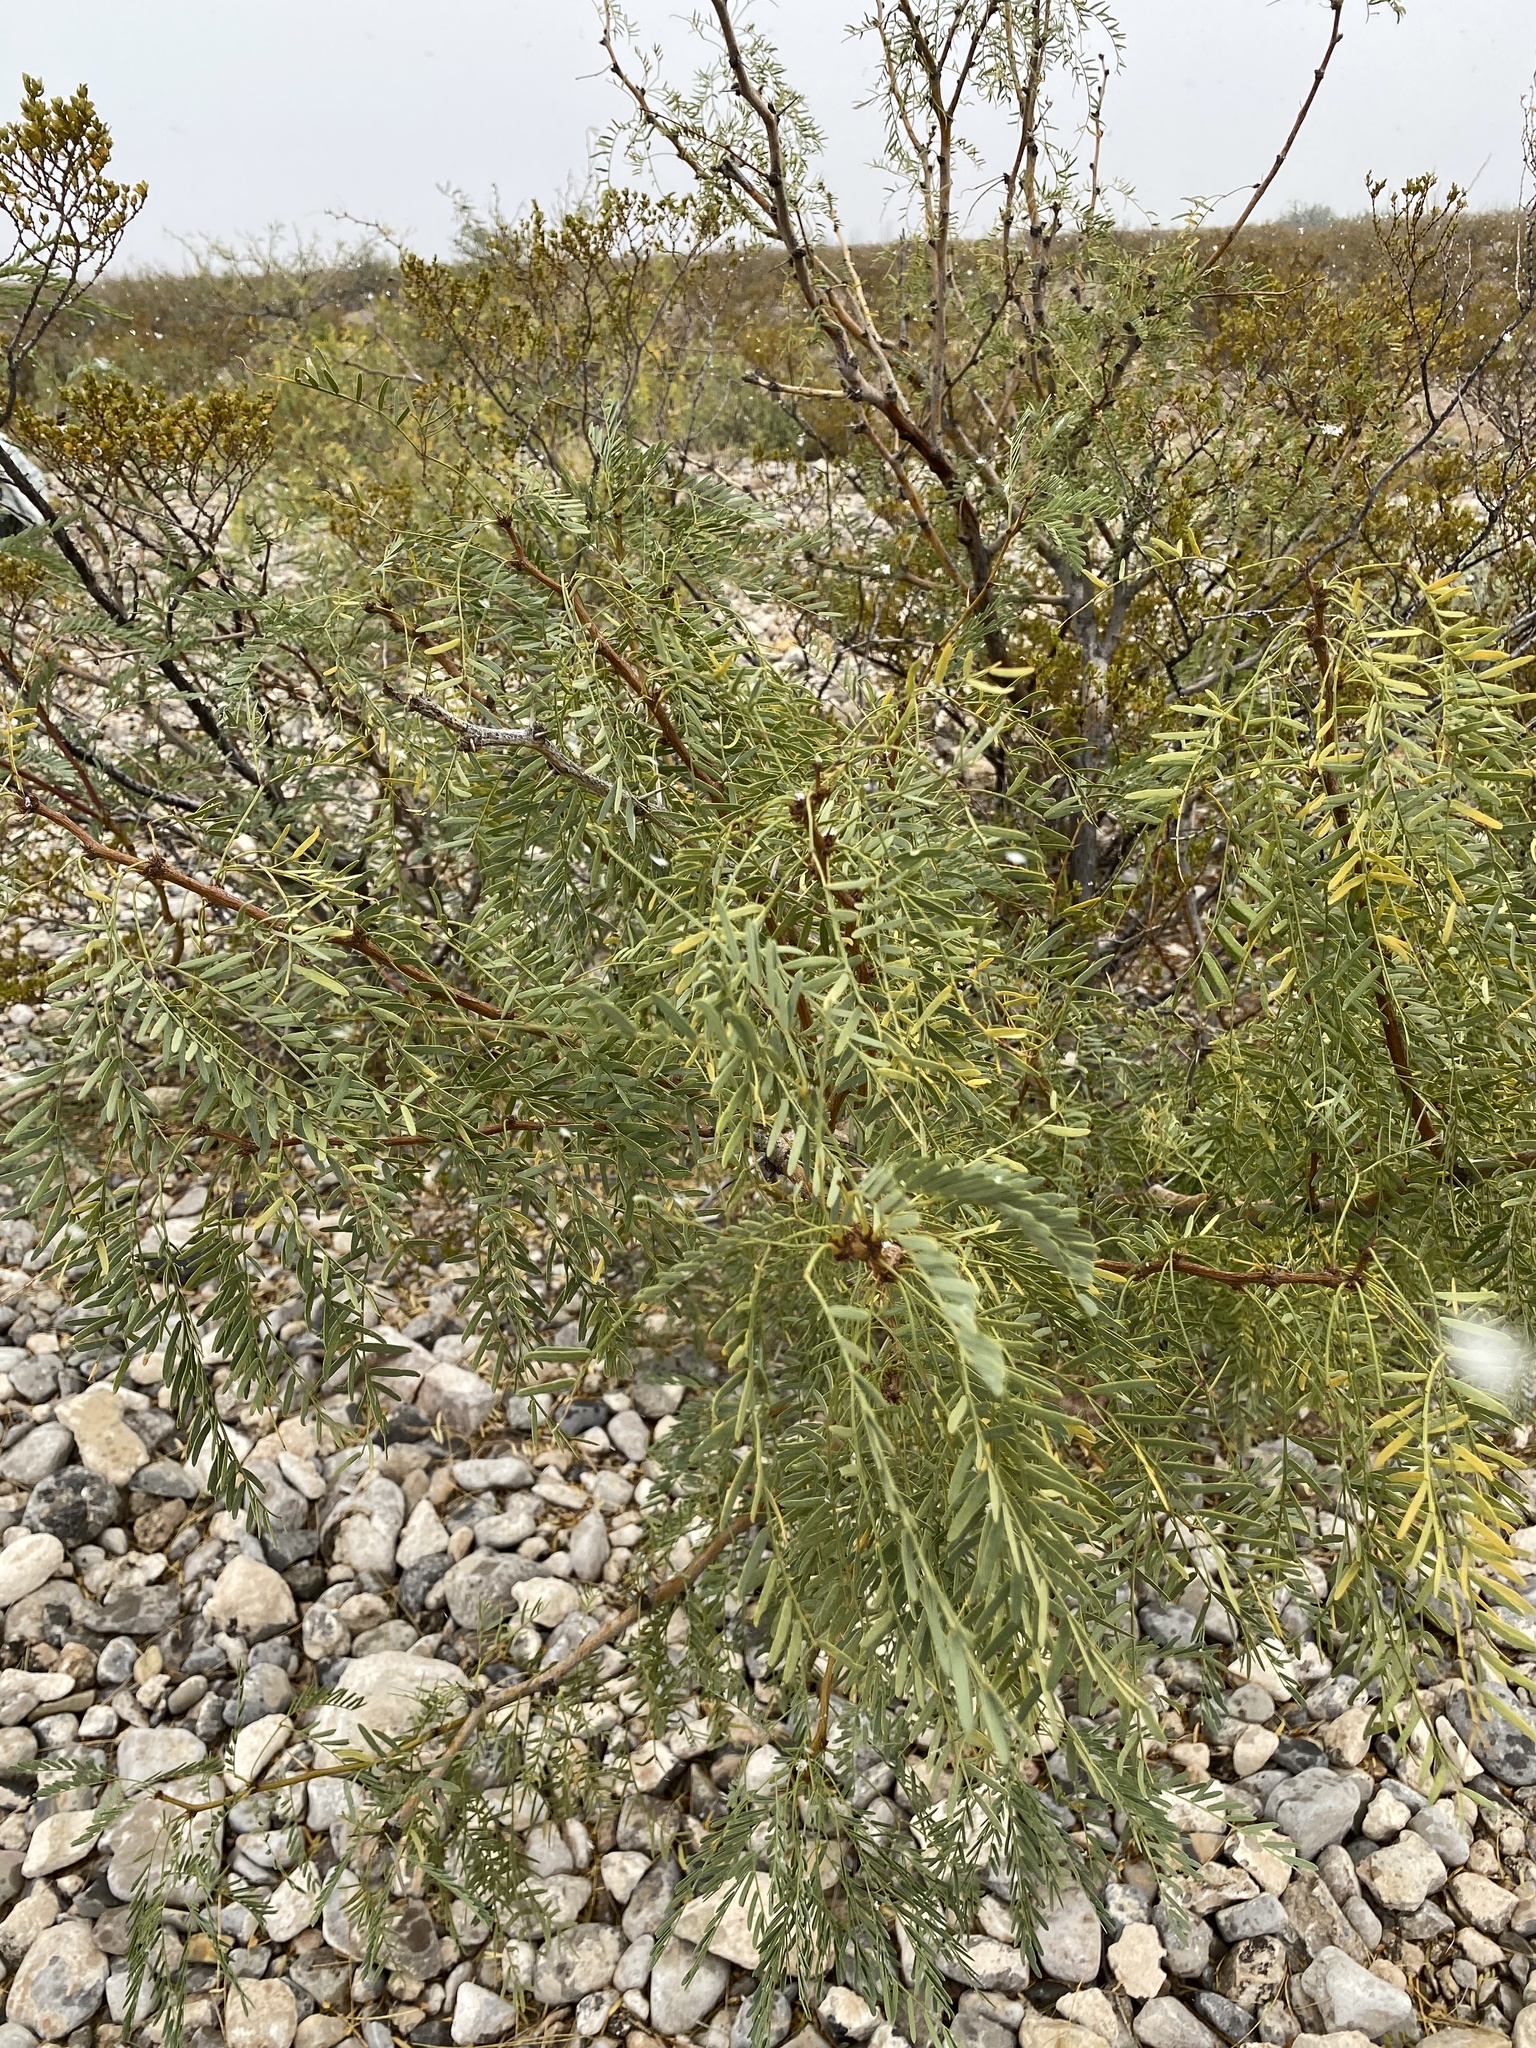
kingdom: Plantae
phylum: Tracheophyta
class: Magnoliopsida
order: Fabales
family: Fabaceae
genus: Prosopis
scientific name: Prosopis glandulosa
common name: Honey mesquite
